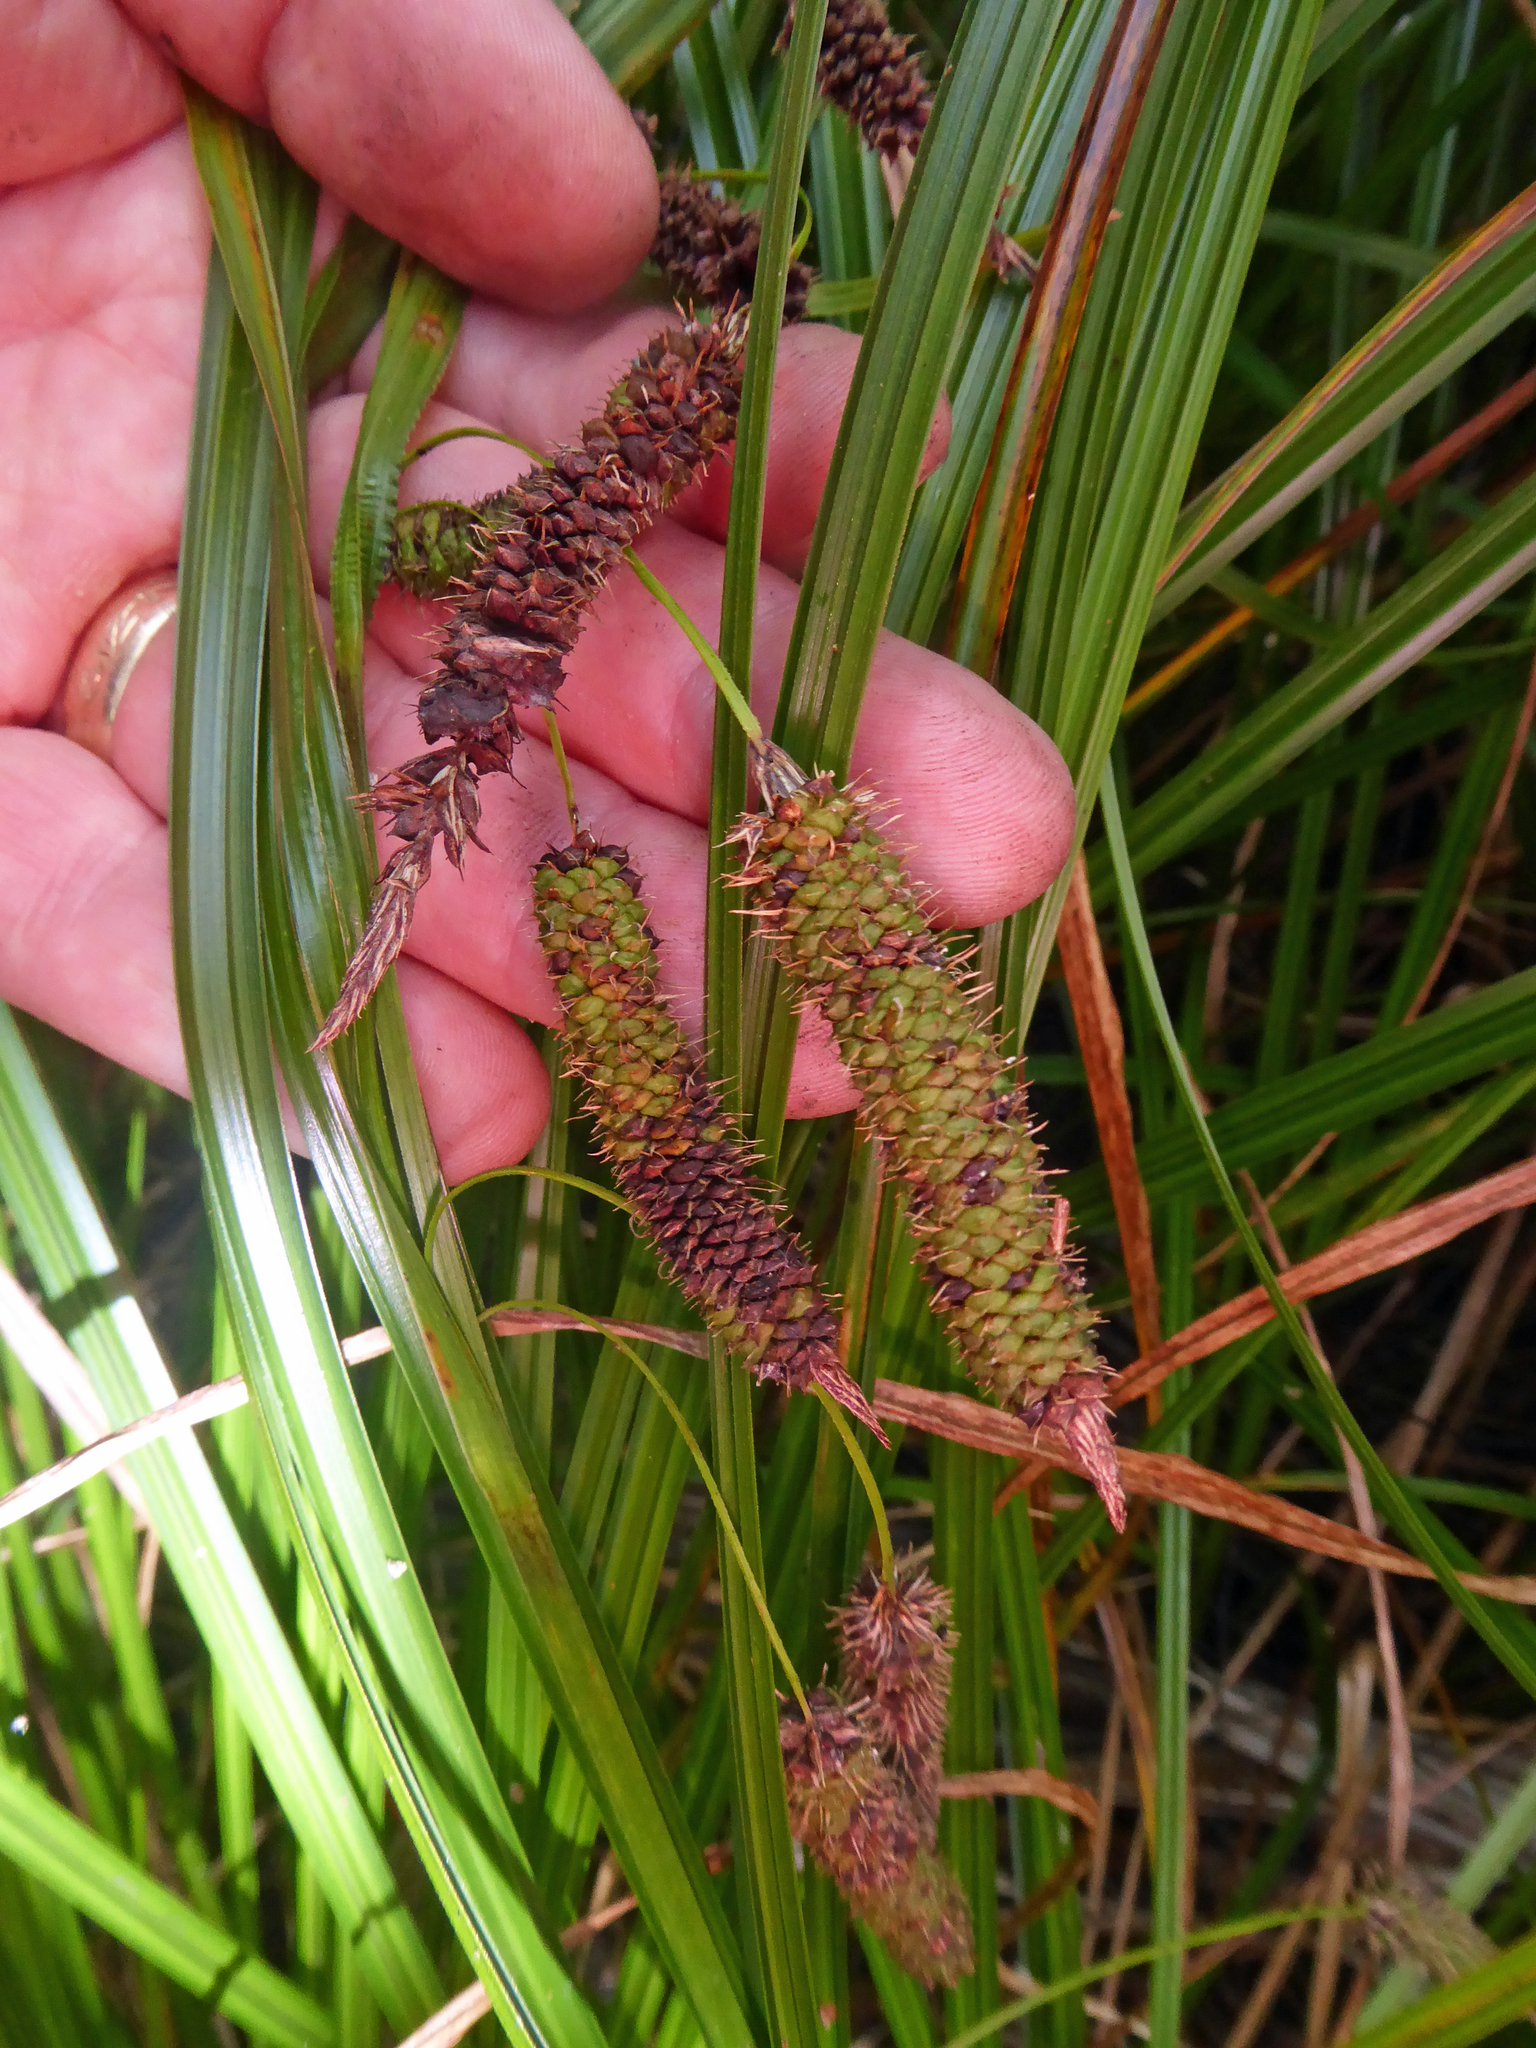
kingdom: Plantae
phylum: Tracheophyta
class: Liliopsida
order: Poales
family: Cyperaceae
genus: Carex
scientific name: Carex lessoniana
